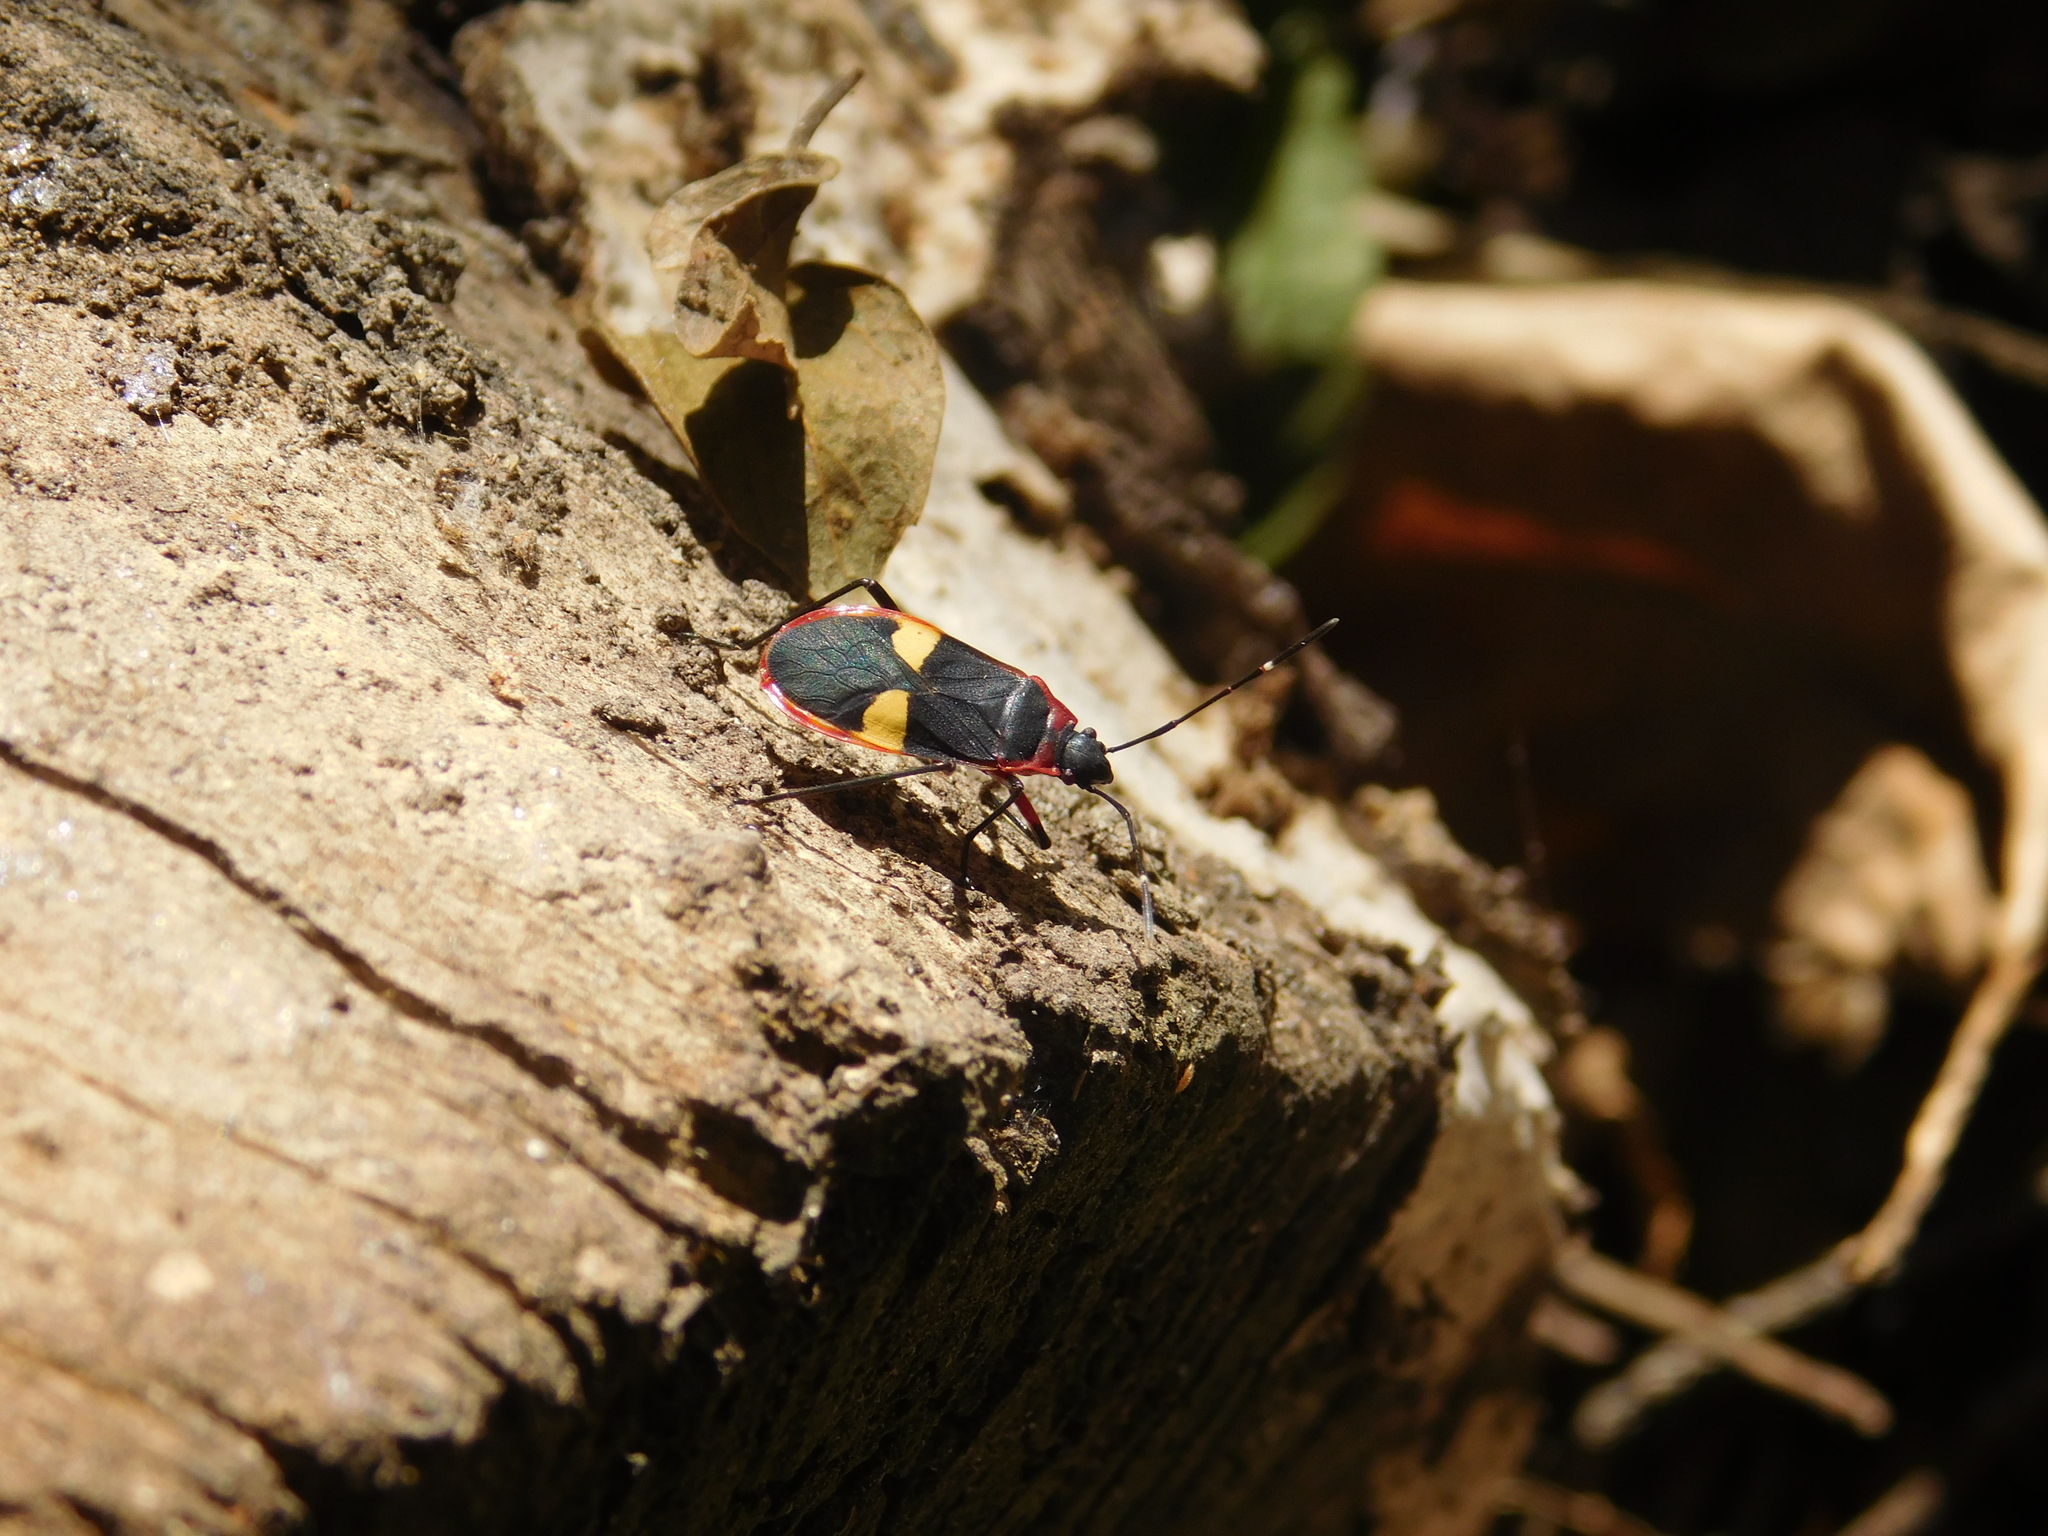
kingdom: Animalia
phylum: Arthropoda
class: Insecta
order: Hemiptera
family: Pyrrhocoridae
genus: Dysdercus
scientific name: Dysdercus albofasciatus
